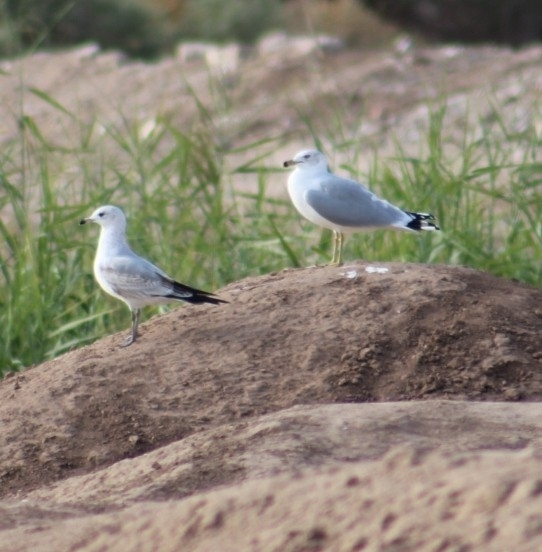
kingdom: Animalia
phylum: Chordata
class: Aves
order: Charadriiformes
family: Laridae
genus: Larus
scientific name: Larus delawarensis
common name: Ring-billed gull
